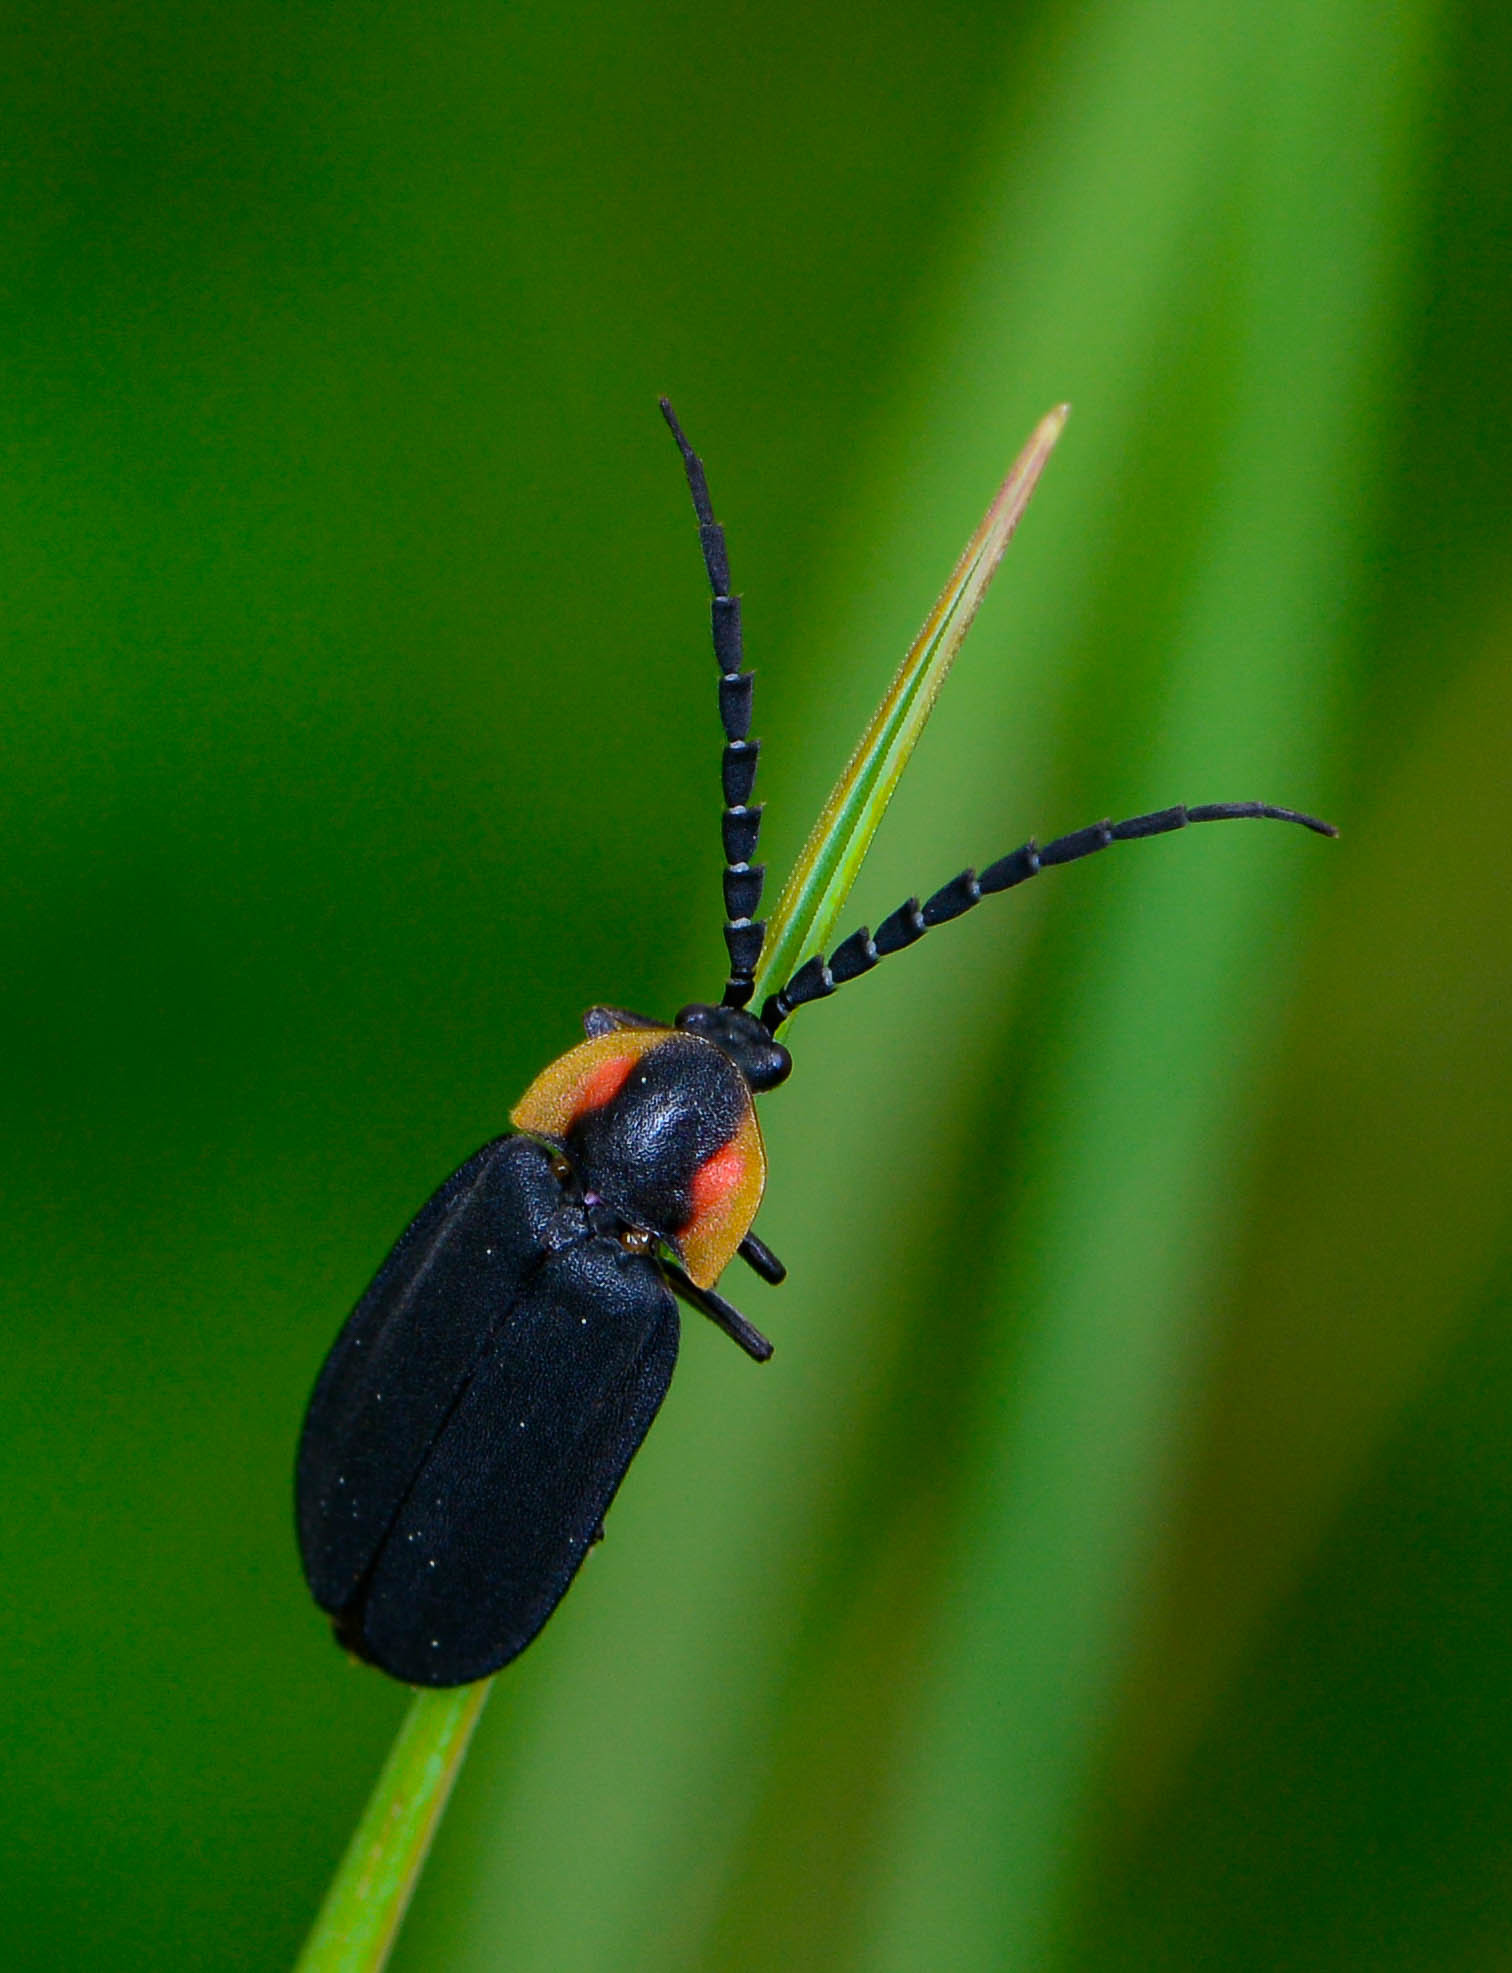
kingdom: Animalia
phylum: Arthropoda
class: Insecta
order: Coleoptera
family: Lampyridae
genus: Lucidota
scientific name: Lucidota atra
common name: Black firefly
